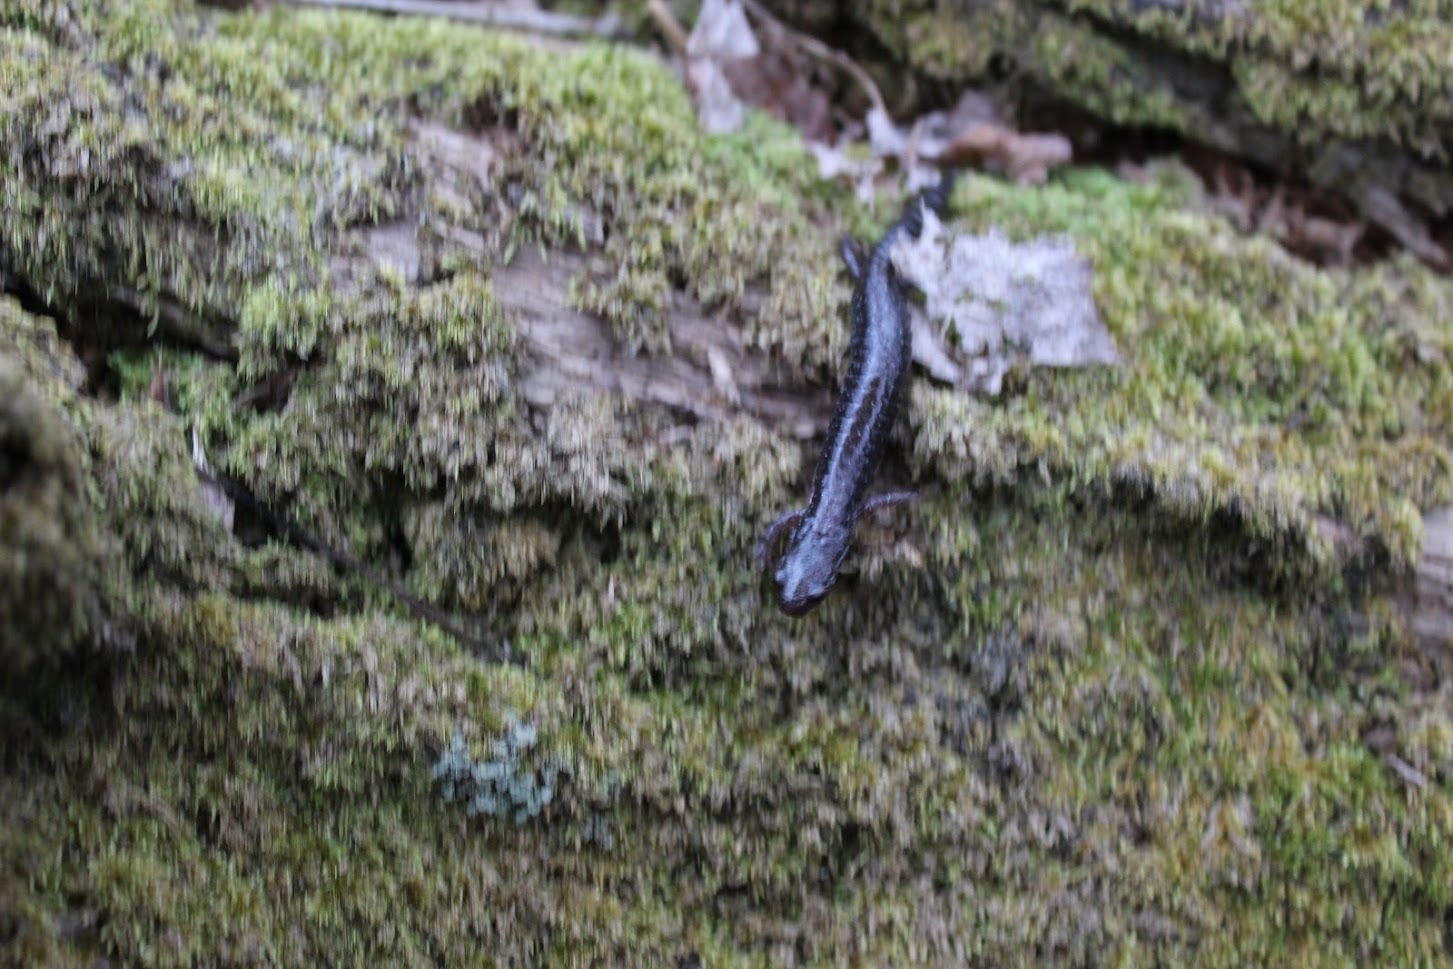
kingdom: Animalia
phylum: Chordata
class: Amphibia
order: Caudata
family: Plethodontidae
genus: Plethodon
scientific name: Plethodon cinereus
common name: Redback salamander
